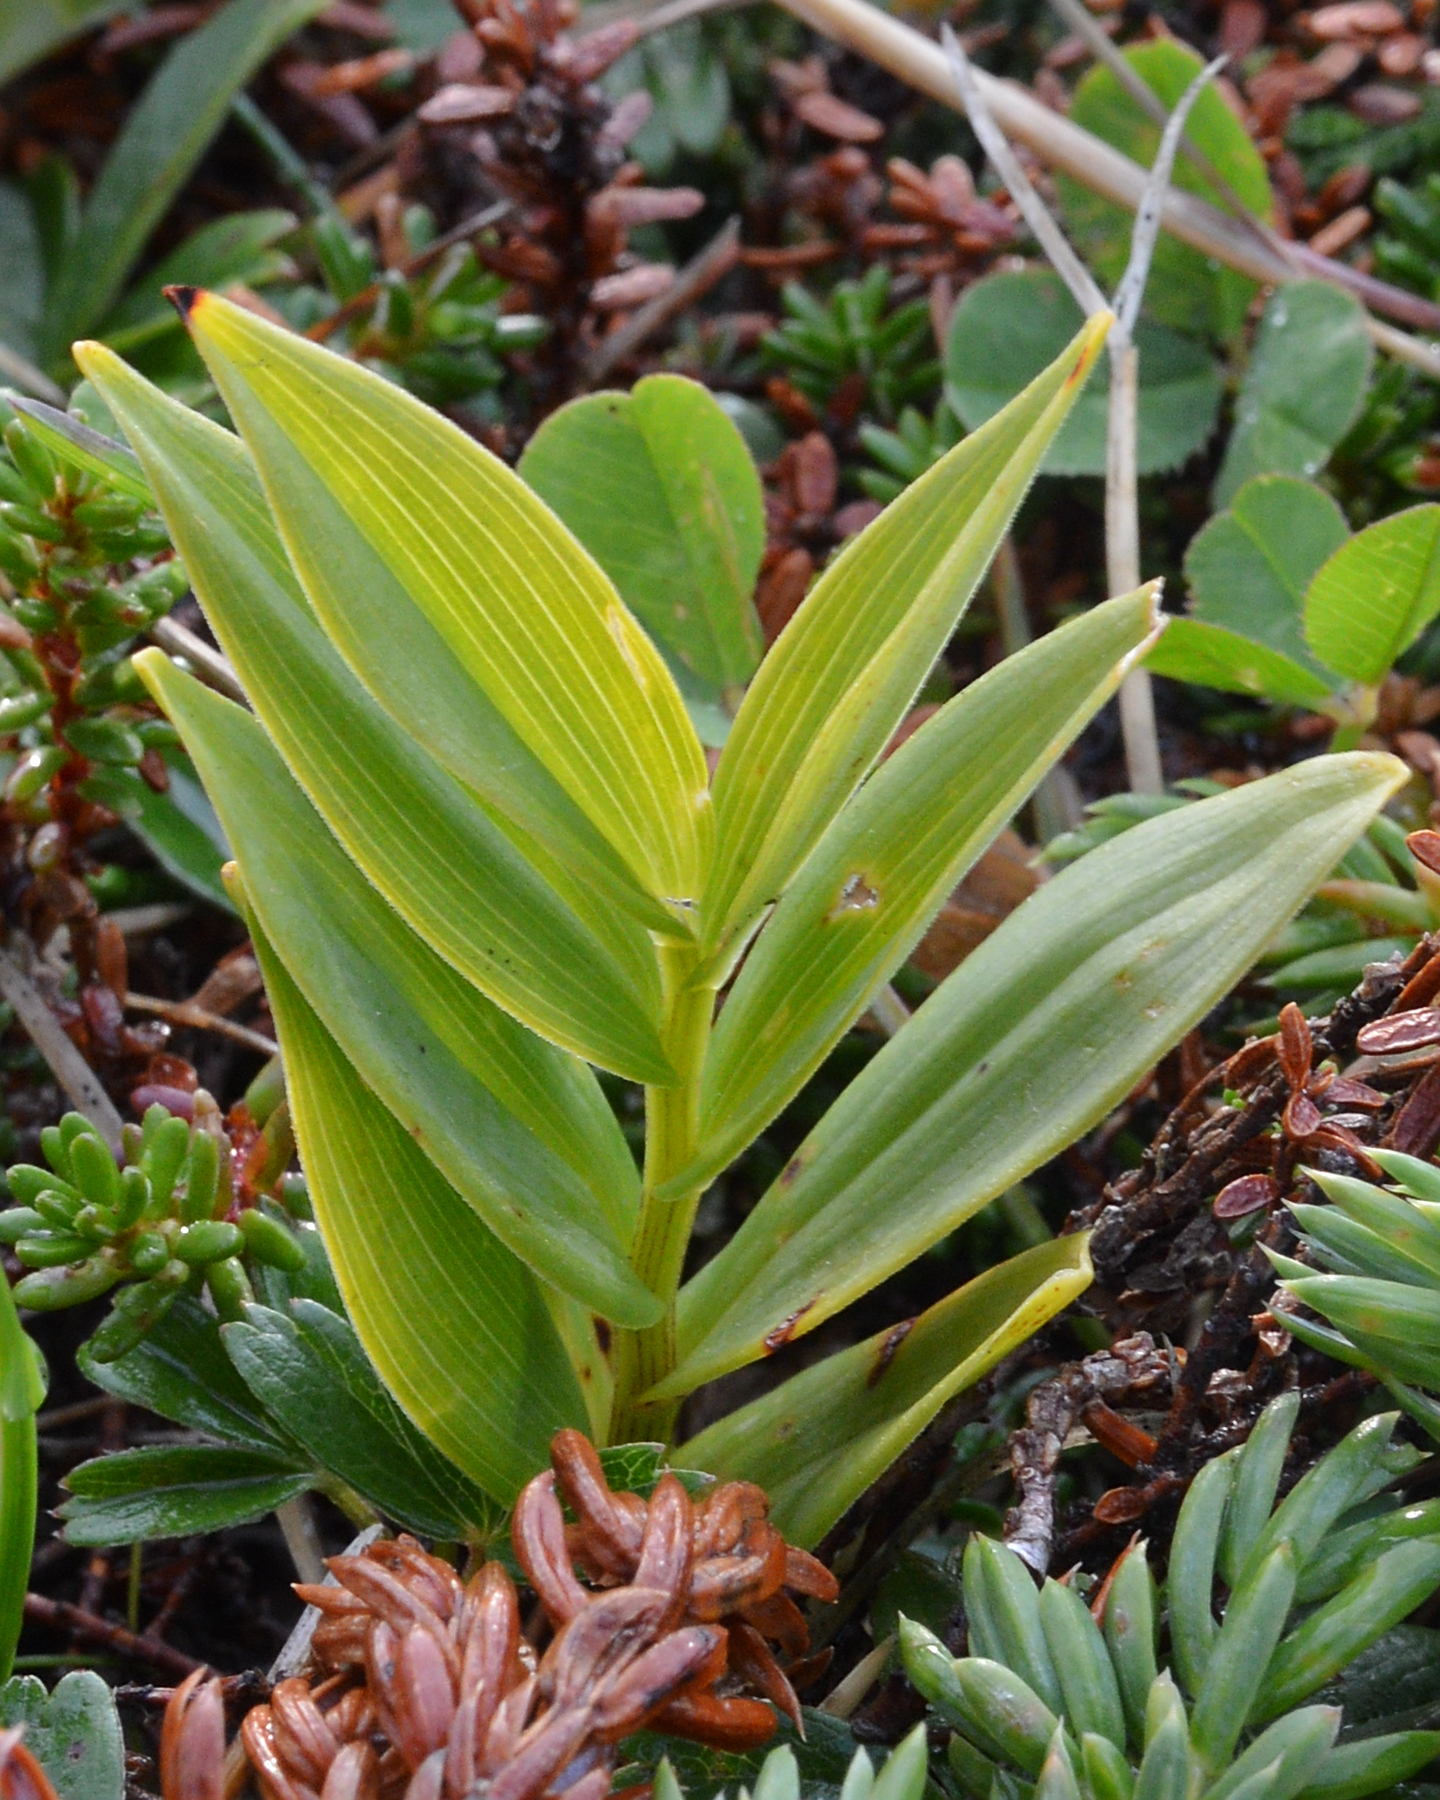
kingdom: Plantae
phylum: Tracheophyta
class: Liliopsida
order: Asparagales
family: Asparagaceae
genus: Maianthemum
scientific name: Maianthemum stellatum
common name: Little false solomon's seal
